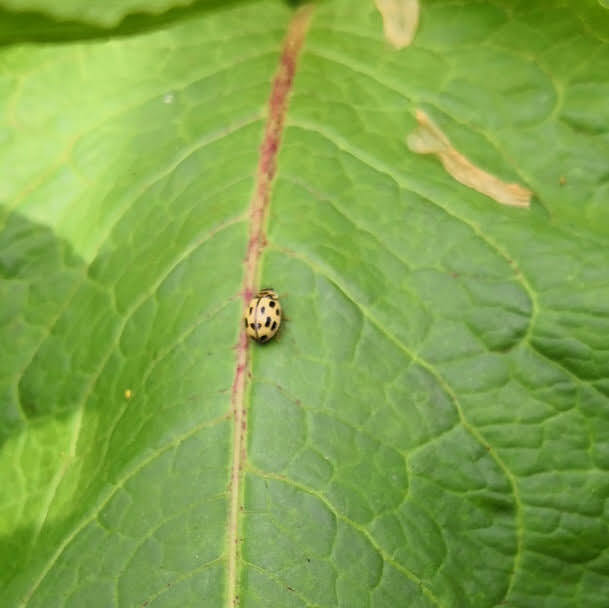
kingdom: Animalia
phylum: Arthropoda
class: Insecta
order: Coleoptera
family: Coccinellidae
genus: Propylaea
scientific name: Propylaea quatuordecimpunctata
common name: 14-spotted ladybird beetle
